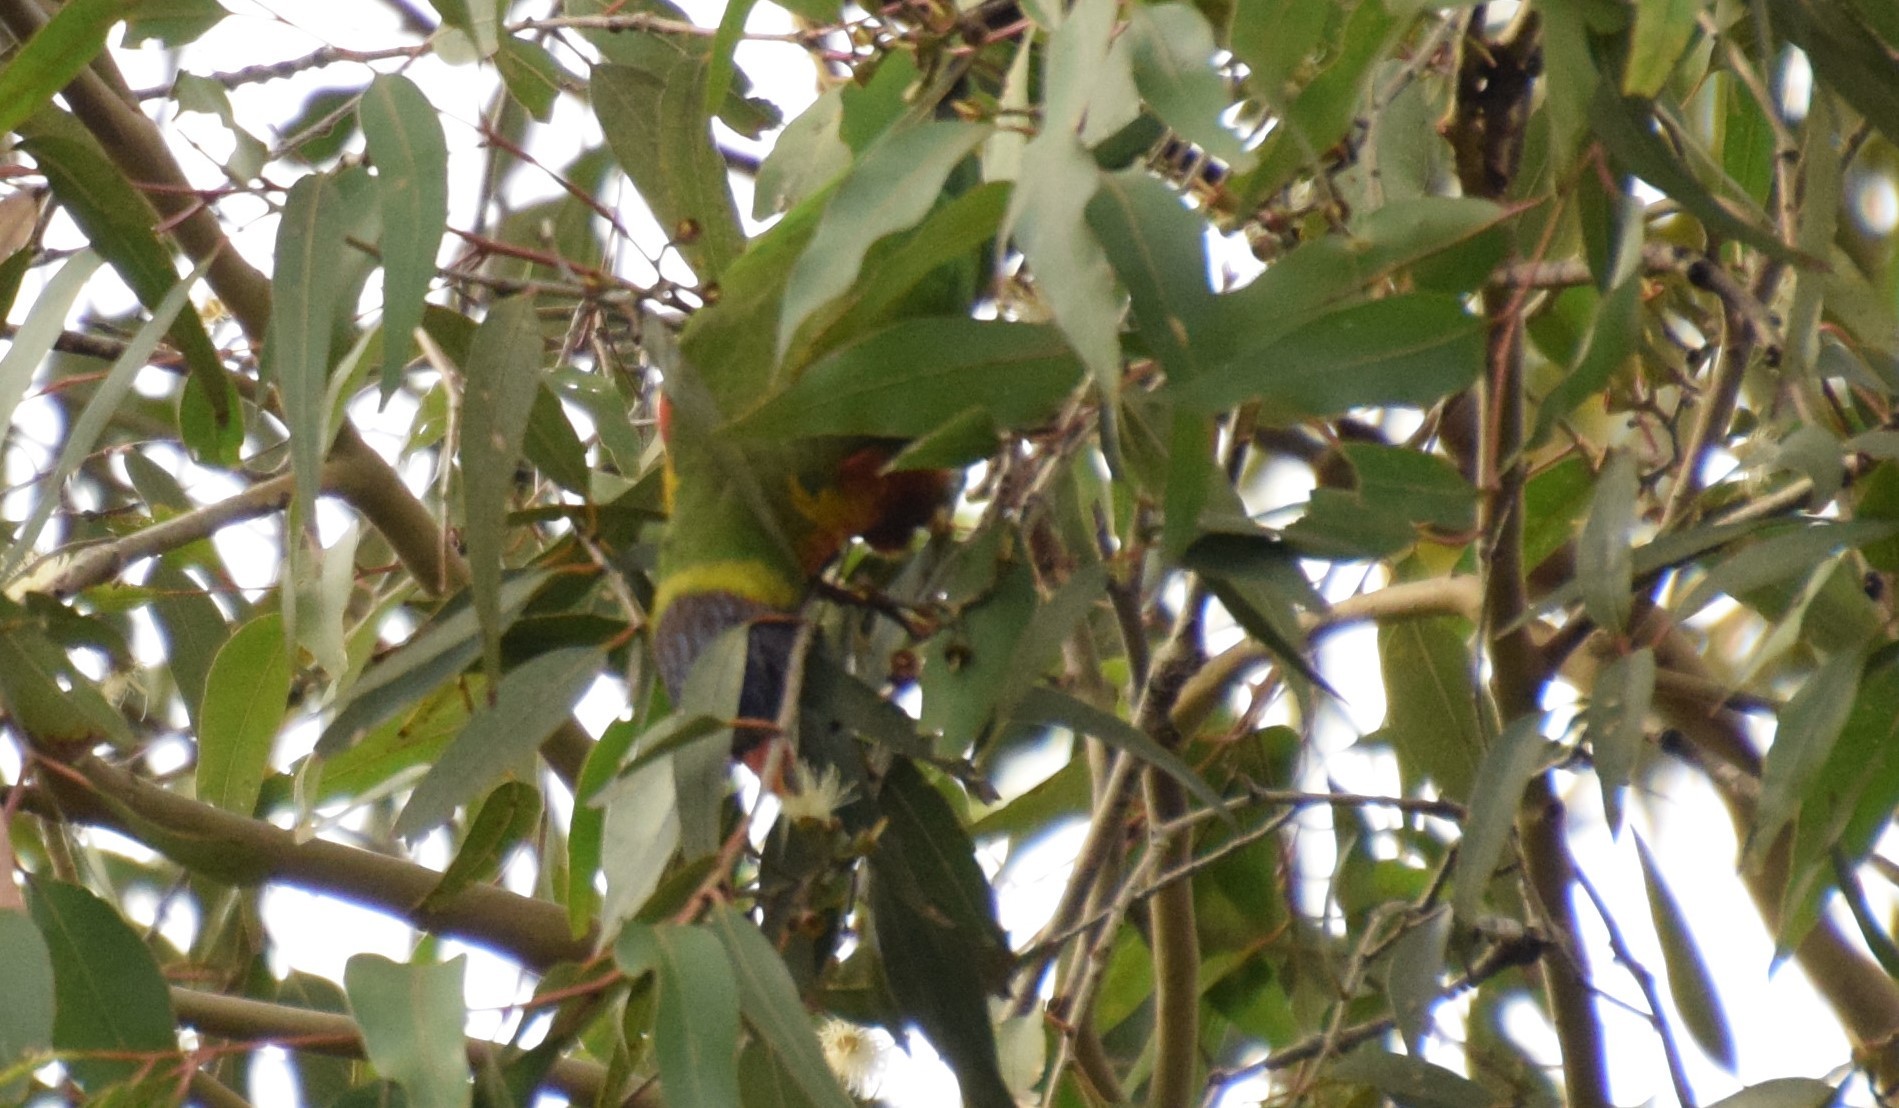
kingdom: Animalia
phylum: Chordata
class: Aves
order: Psittaciformes
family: Psittacidae
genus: Trichoglossus
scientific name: Trichoglossus haematodus
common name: Coconut lorikeet
